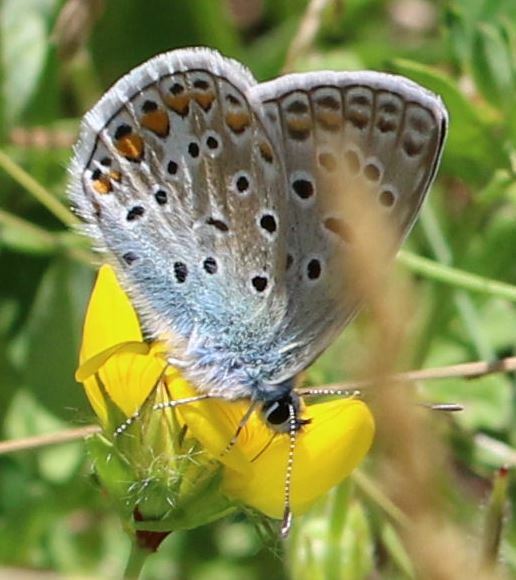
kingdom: Animalia
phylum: Arthropoda
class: Insecta
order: Lepidoptera
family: Lycaenidae
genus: Polyommatus
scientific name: Polyommatus icarus
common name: Common blue
